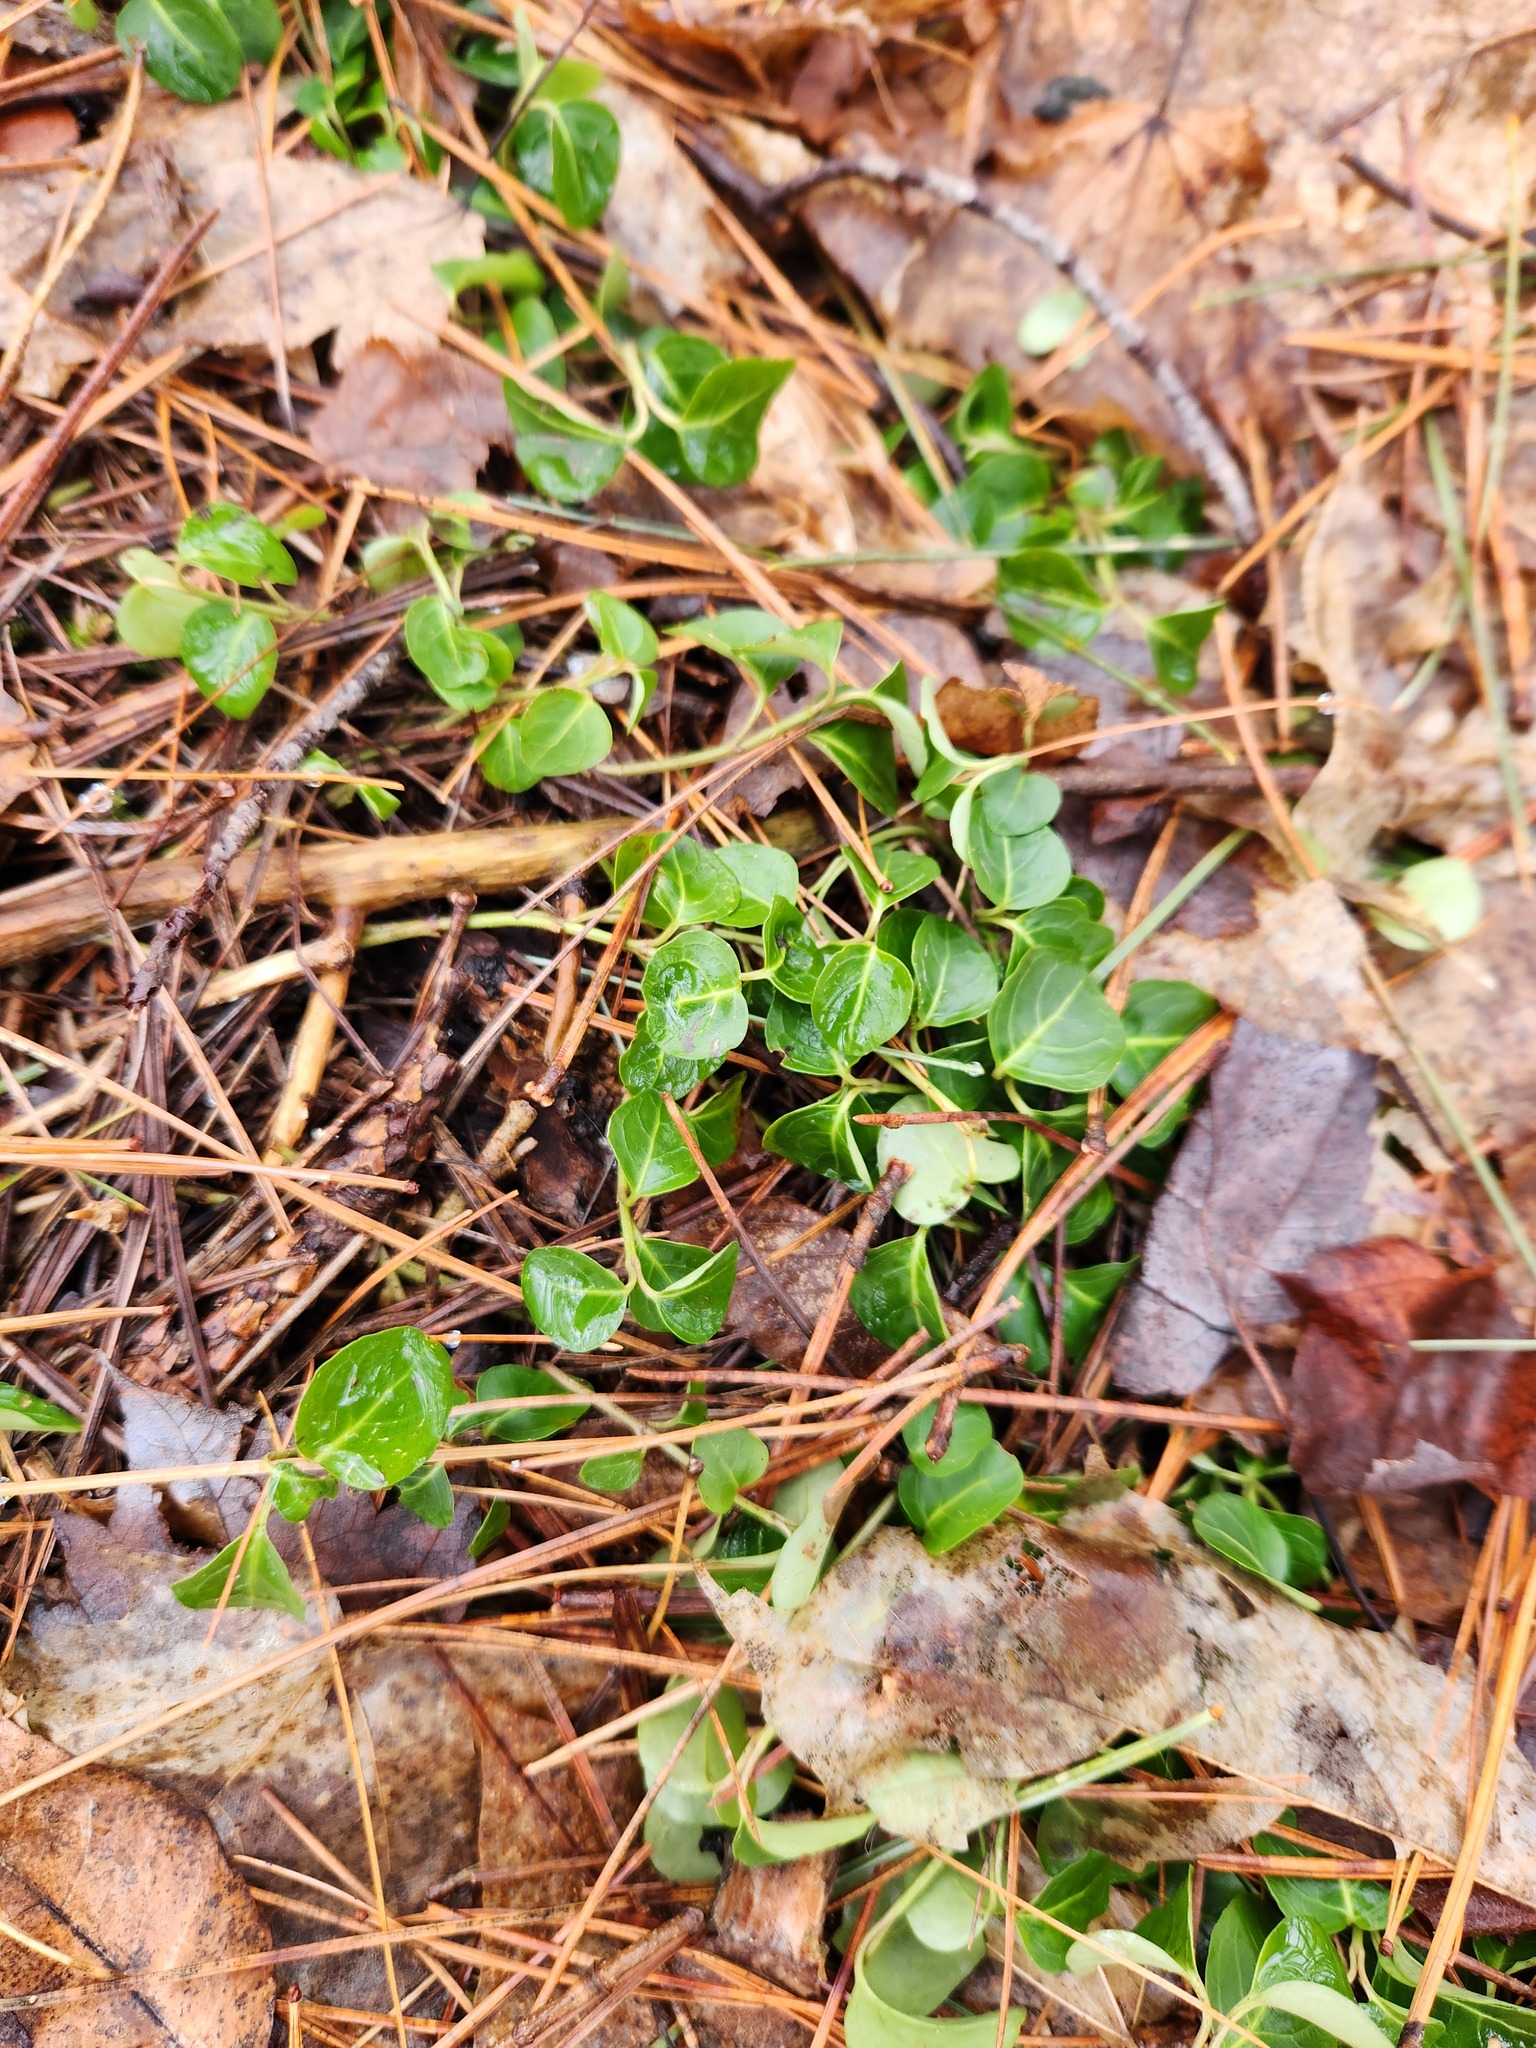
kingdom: Plantae
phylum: Tracheophyta
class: Magnoliopsida
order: Gentianales
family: Rubiaceae
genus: Mitchella
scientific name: Mitchella repens
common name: Partridge-berry
